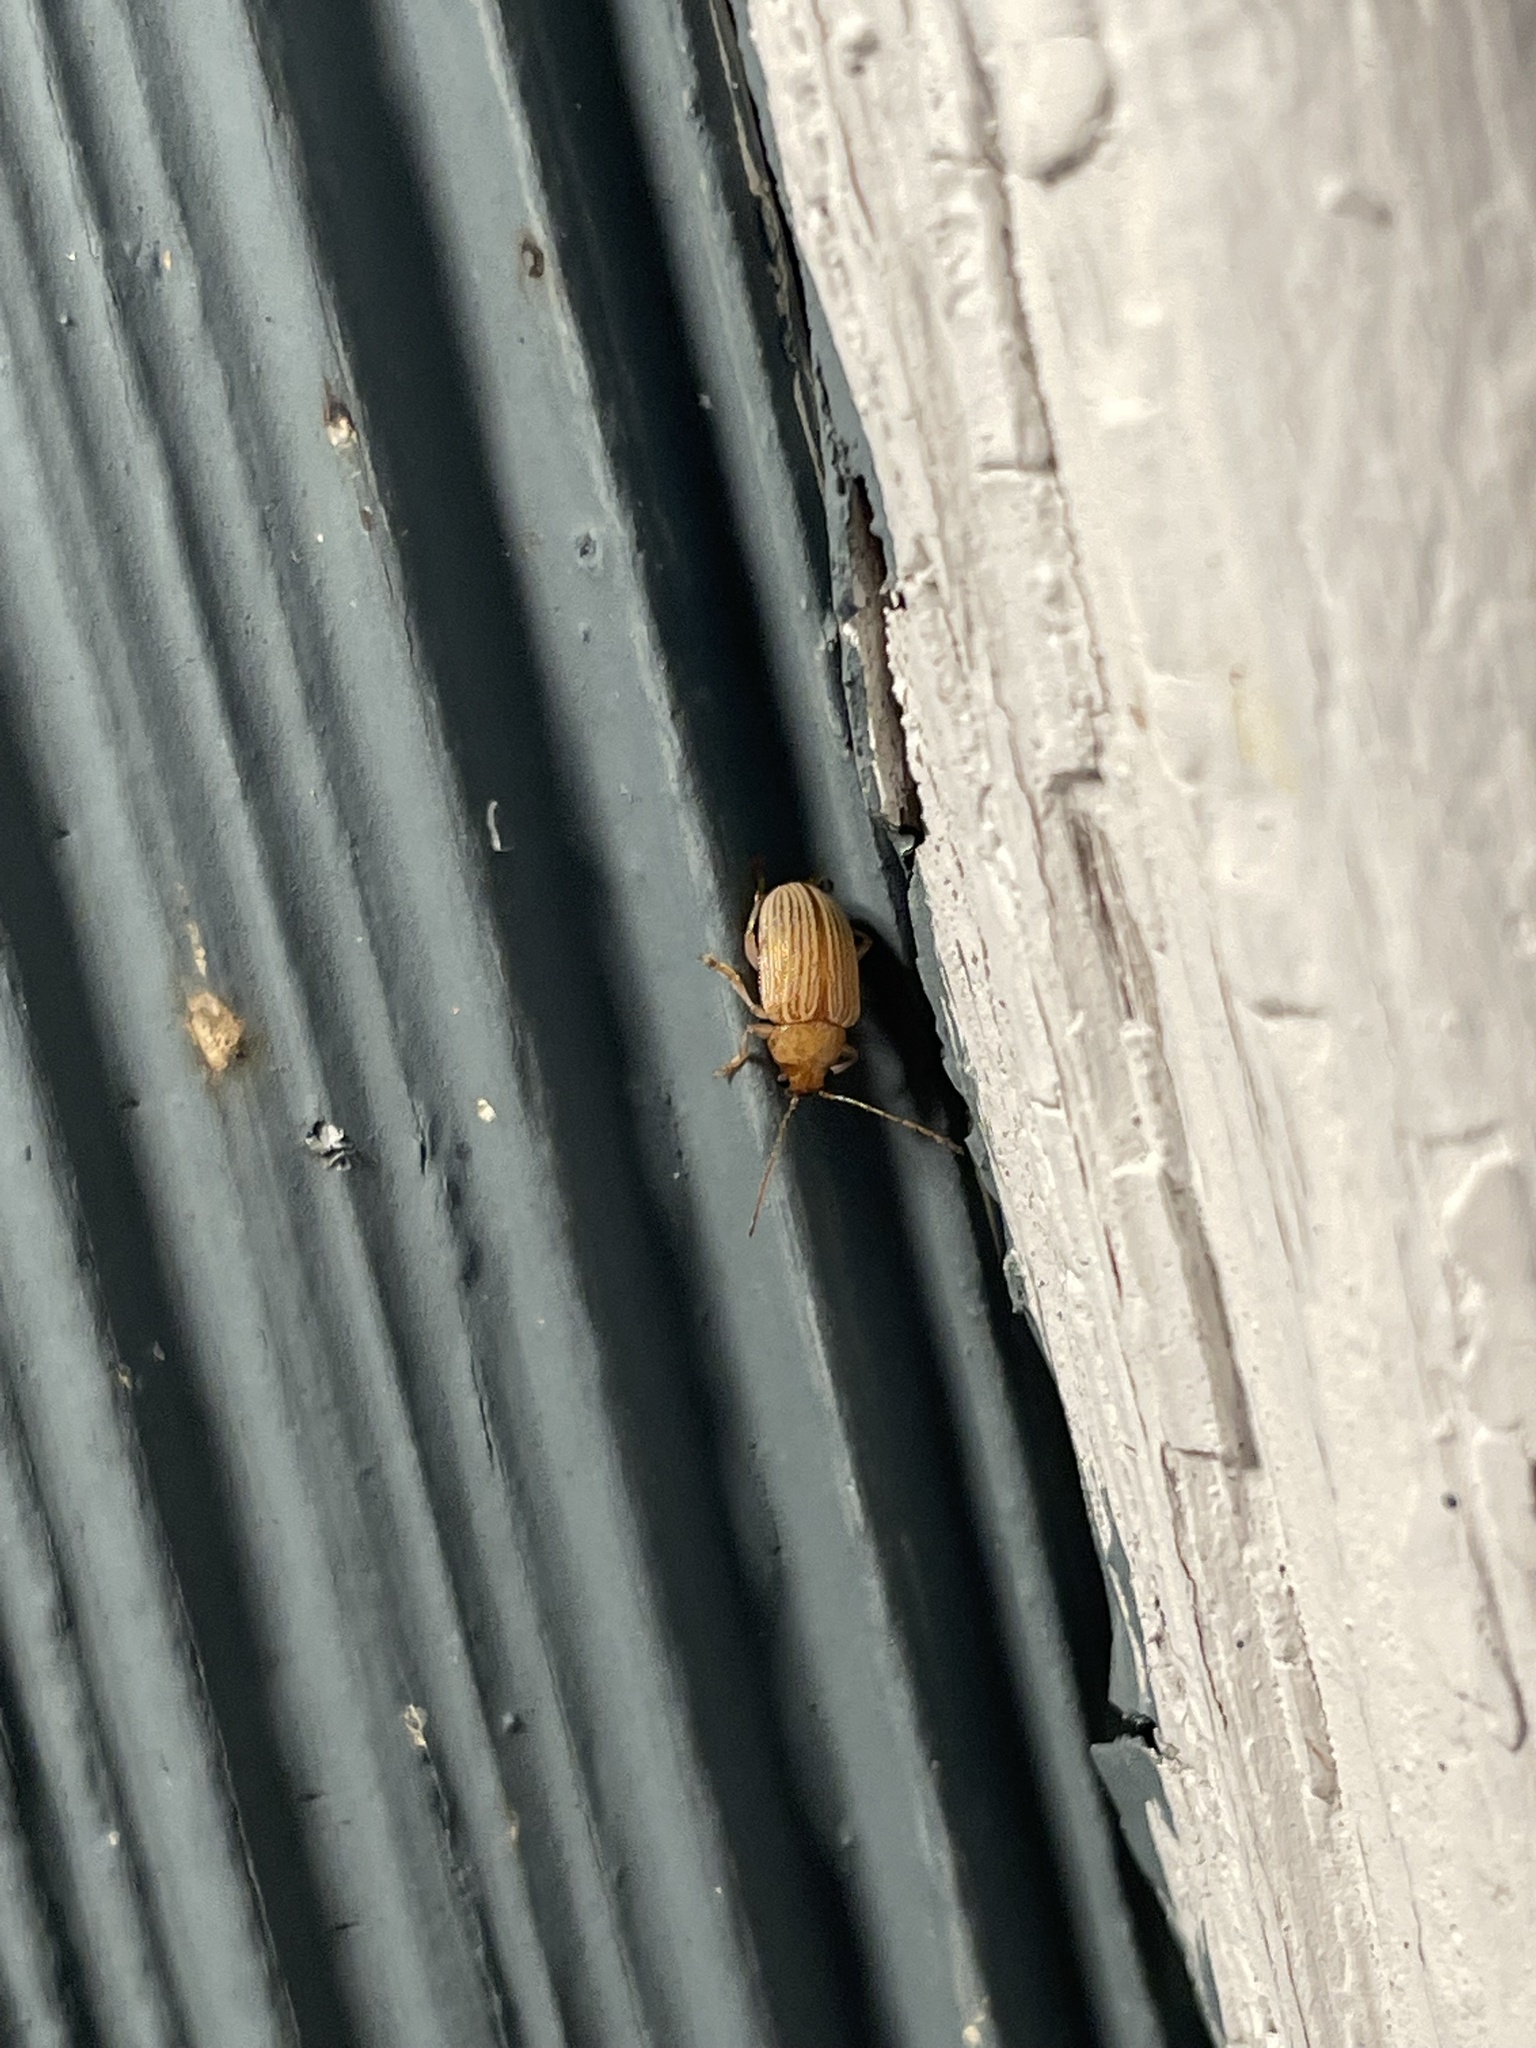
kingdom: Animalia
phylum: Arthropoda
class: Insecta
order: Coleoptera
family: Chrysomelidae
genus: Colaspis
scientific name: Colaspis brunnea
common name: Grape colaspis
